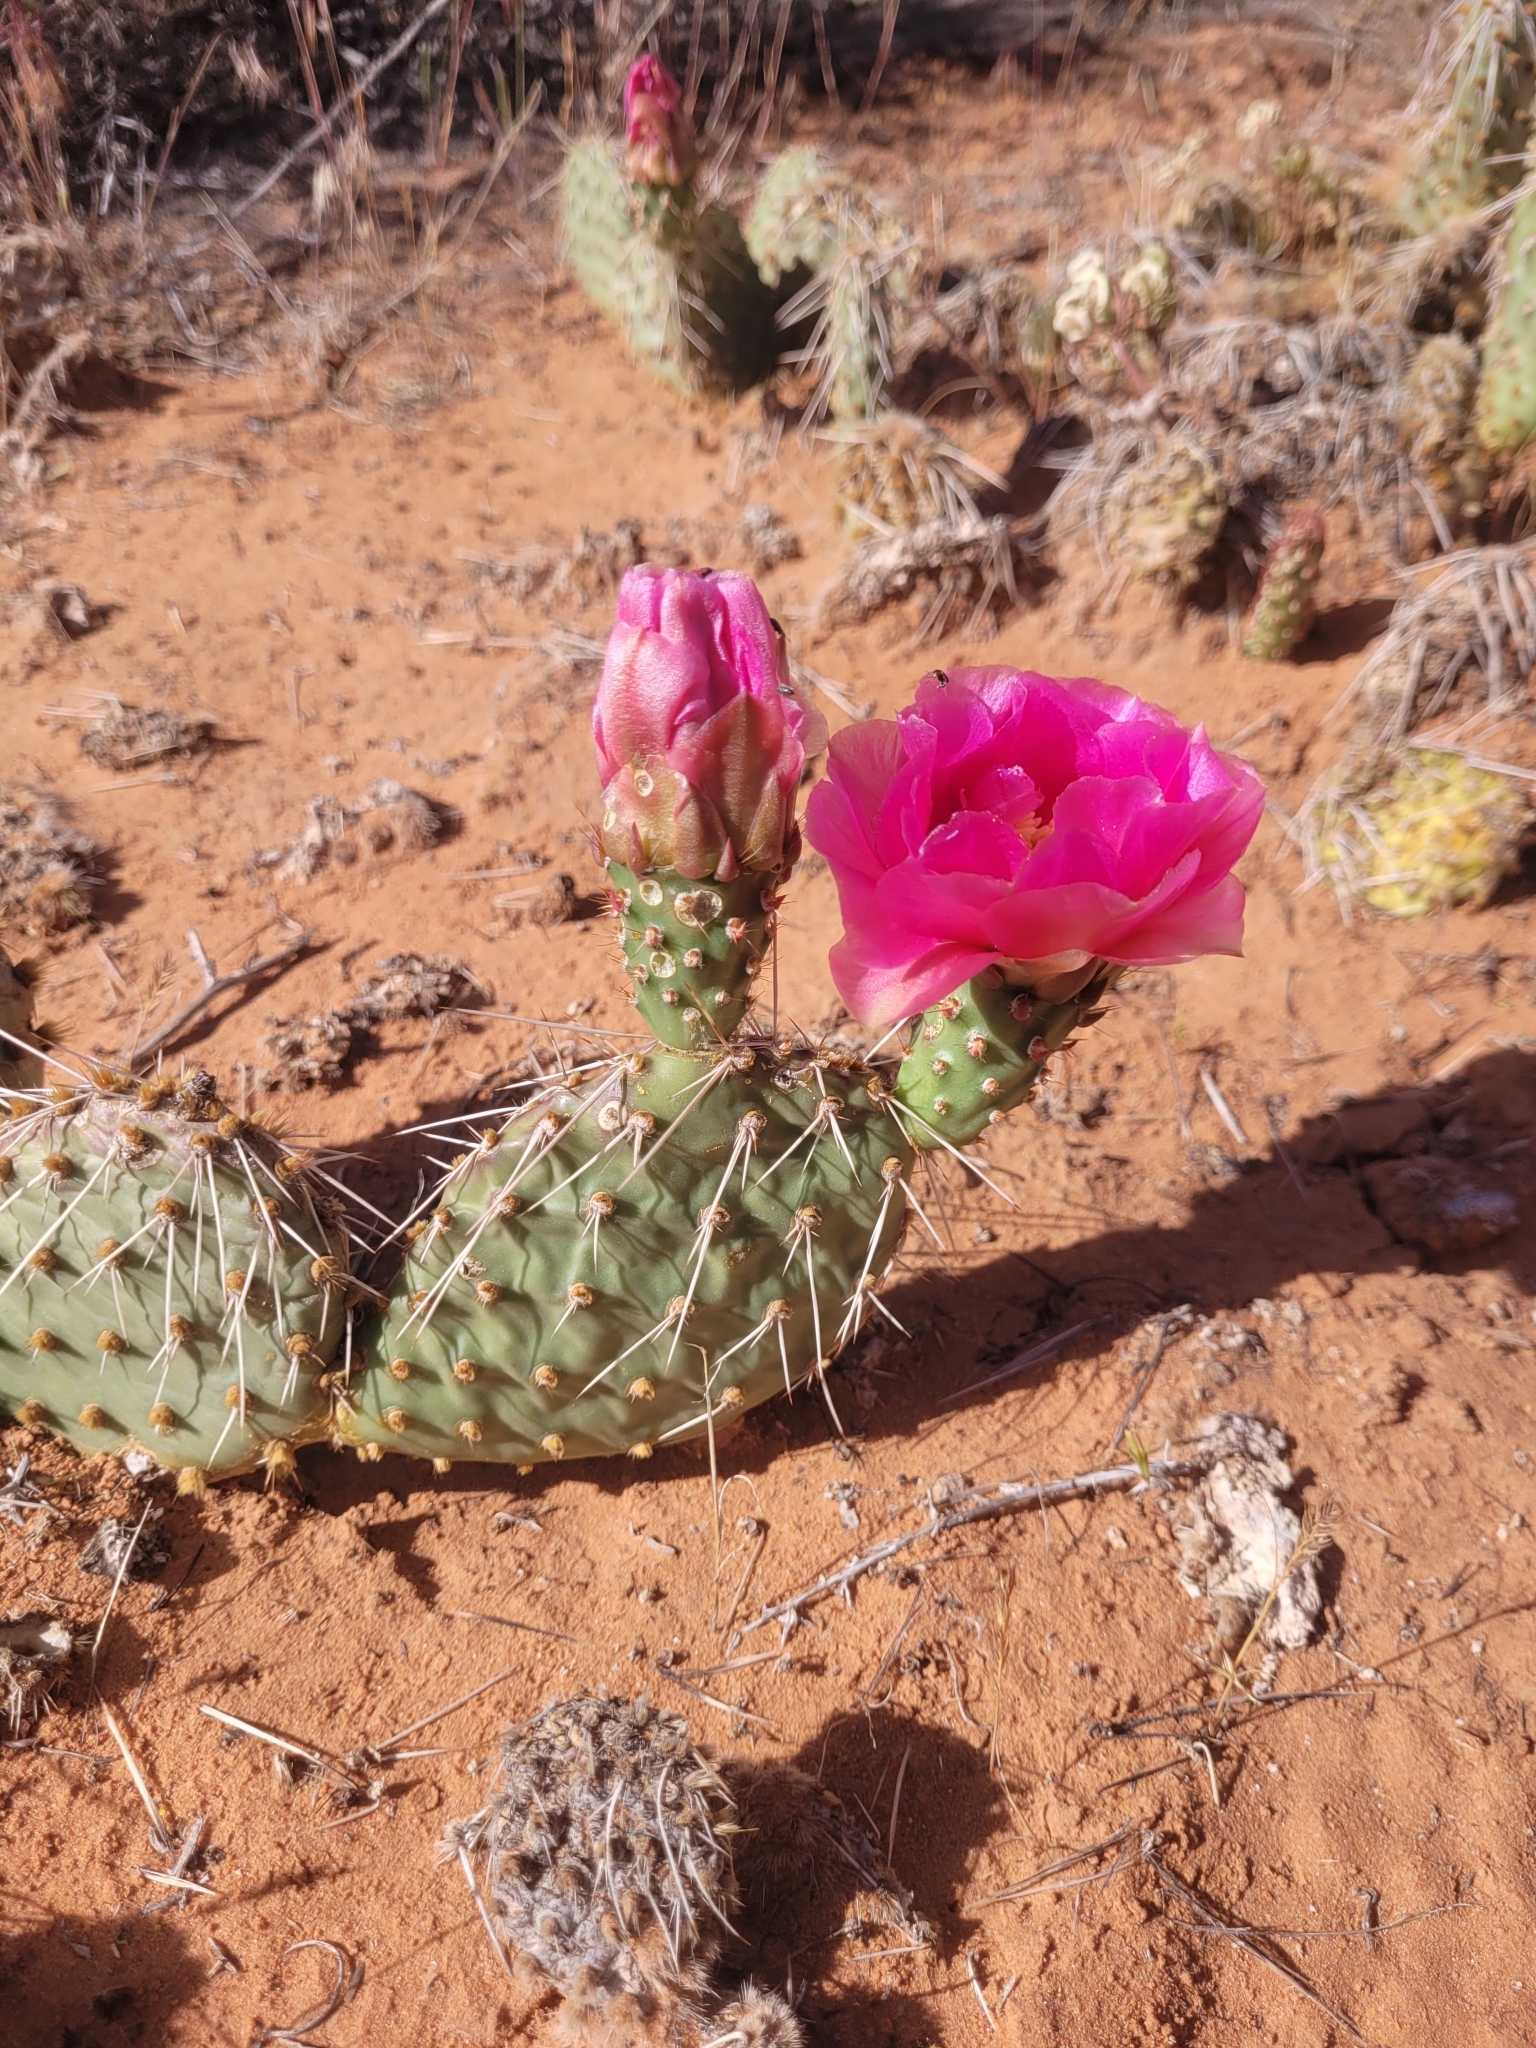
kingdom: Plantae
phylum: Tracheophyta
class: Magnoliopsida
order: Caryophyllales
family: Cactaceae
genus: Opuntia
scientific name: Opuntia polyacantha
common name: Plains prickly-pear
